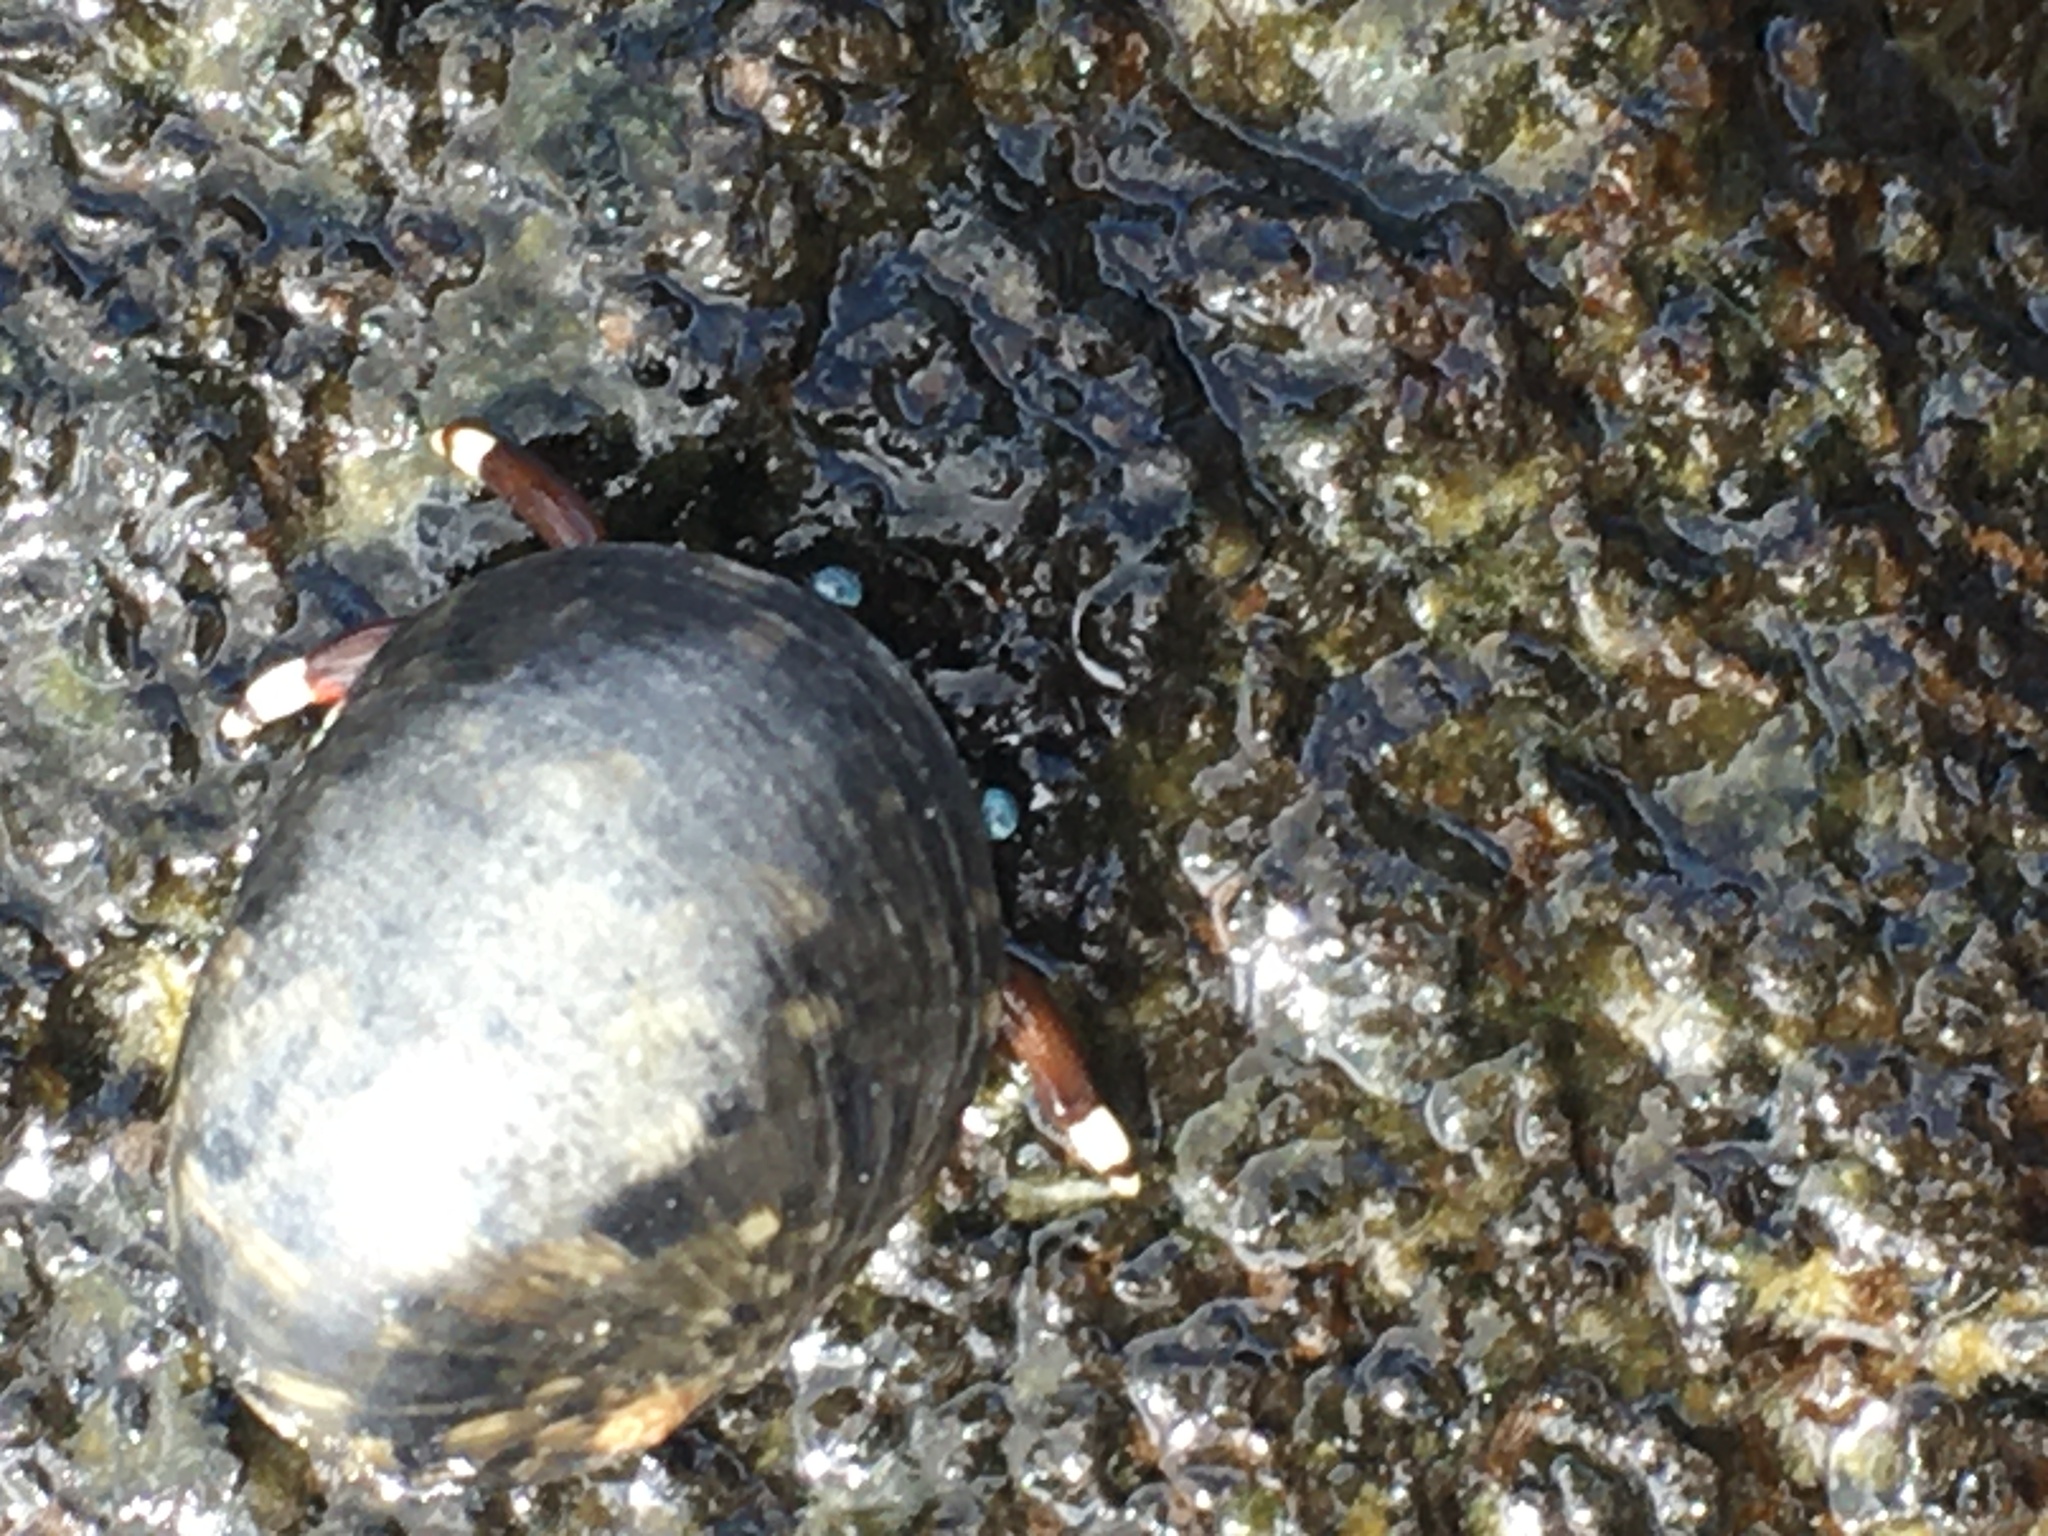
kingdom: Animalia
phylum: Arthropoda
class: Malacostraca
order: Decapoda
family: Diogenidae
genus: Calcinus
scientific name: Calcinus laevimanus
